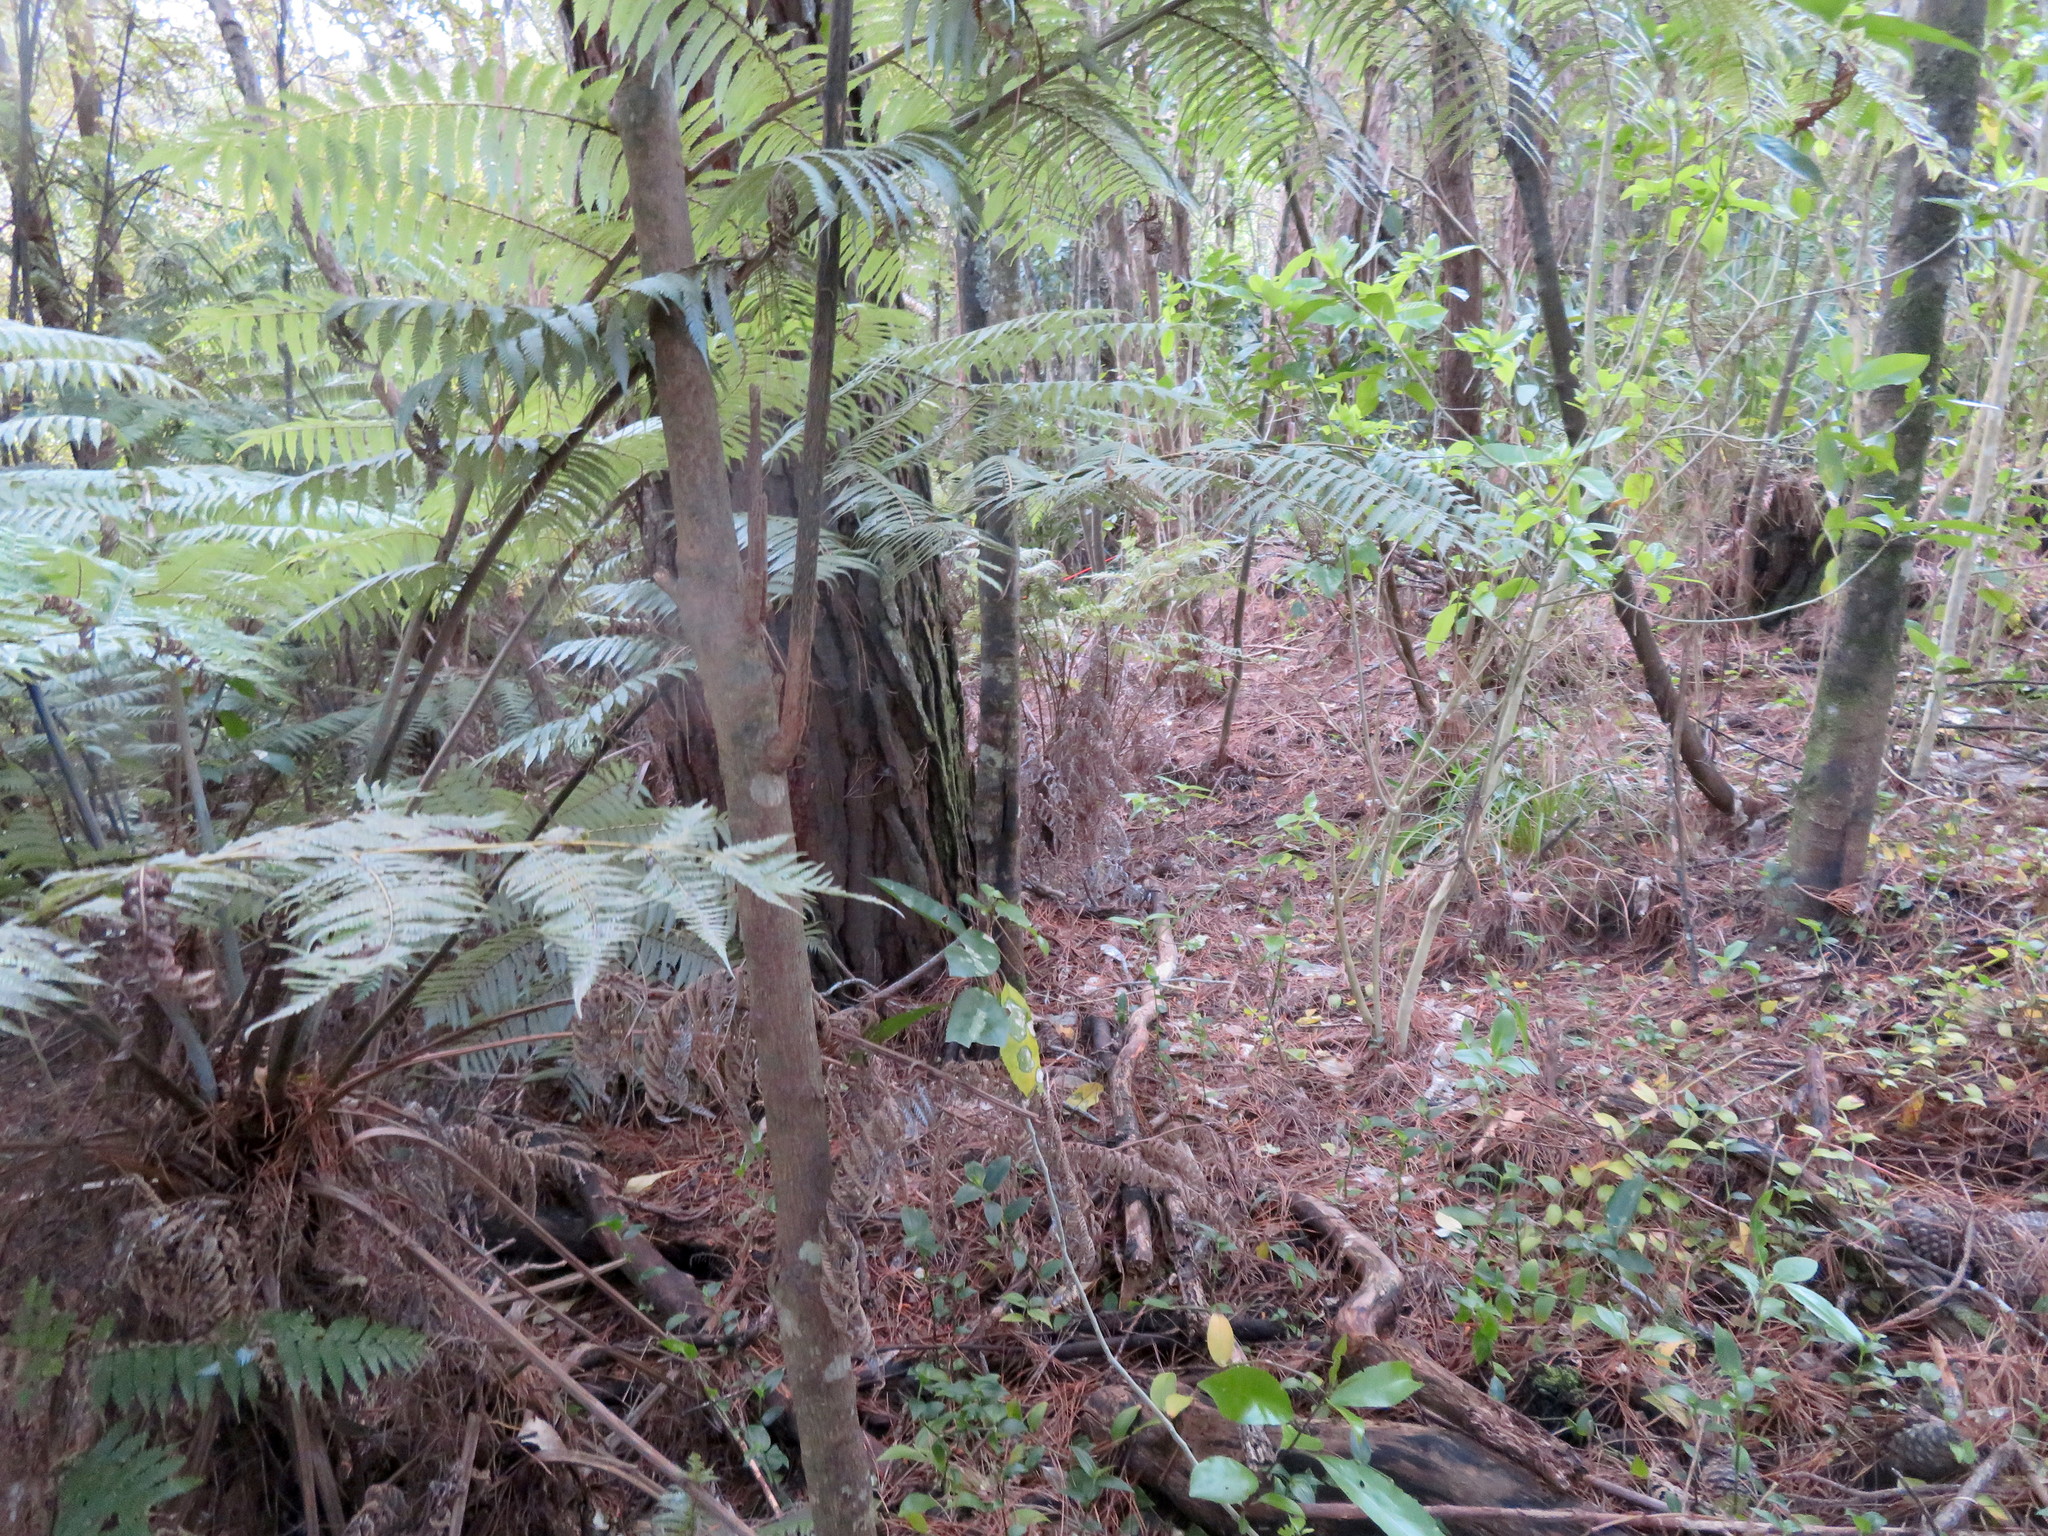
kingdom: Plantae
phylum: Tracheophyta
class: Polypodiopsida
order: Cyatheales
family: Cyatheaceae
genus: Alsophila
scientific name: Alsophila dealbata
